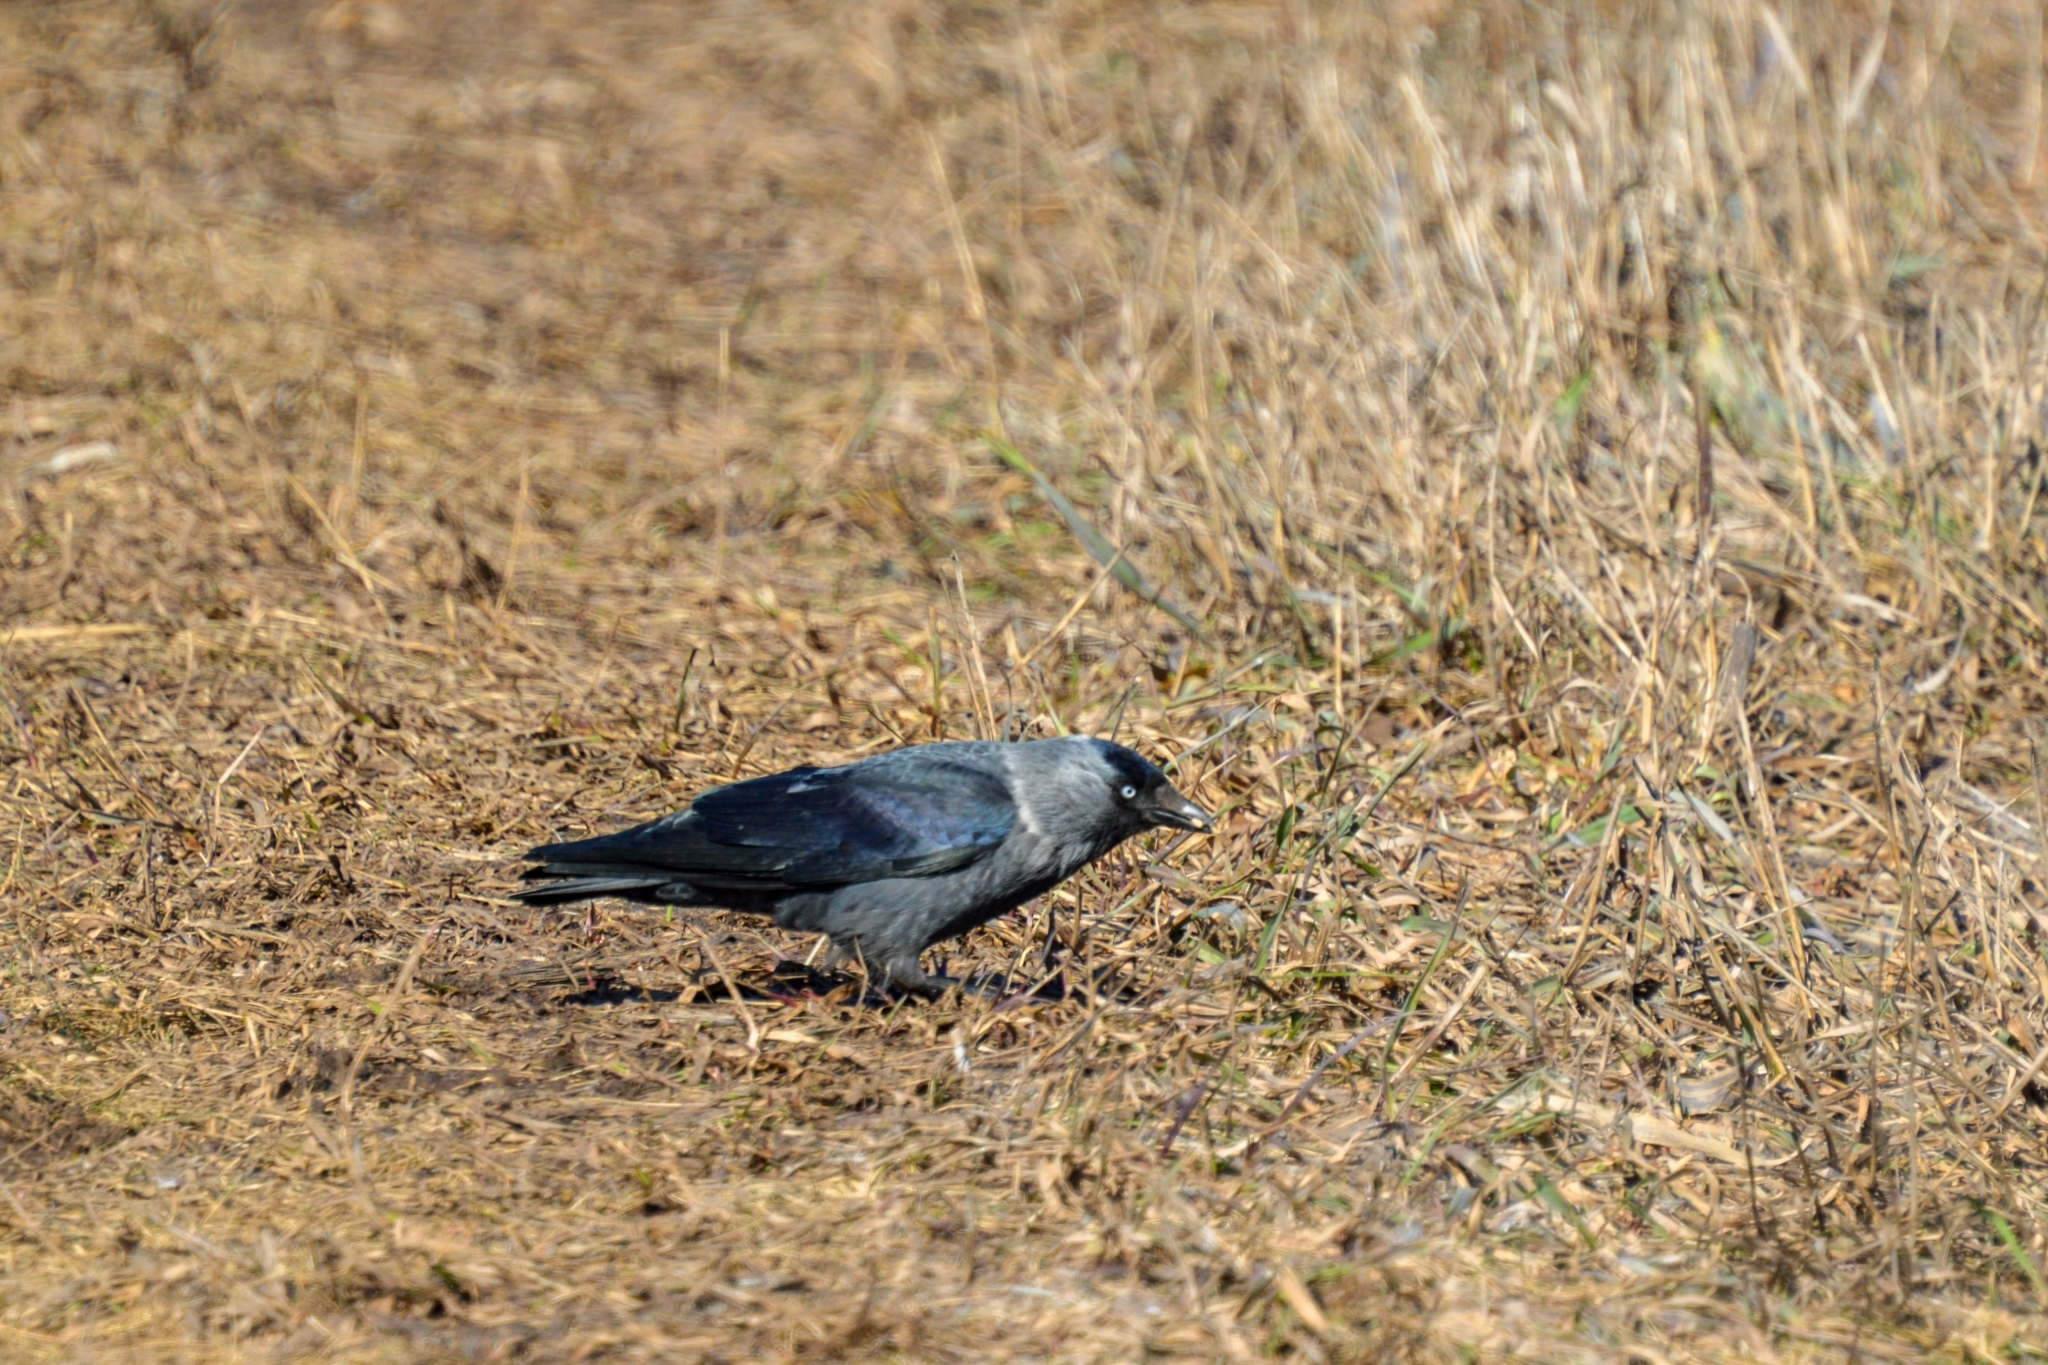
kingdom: Animalia
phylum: Chordata
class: Aves
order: Passeriformes
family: Corvidae
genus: Coloeus
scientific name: Coloeus monedula
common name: Western jackdaw
